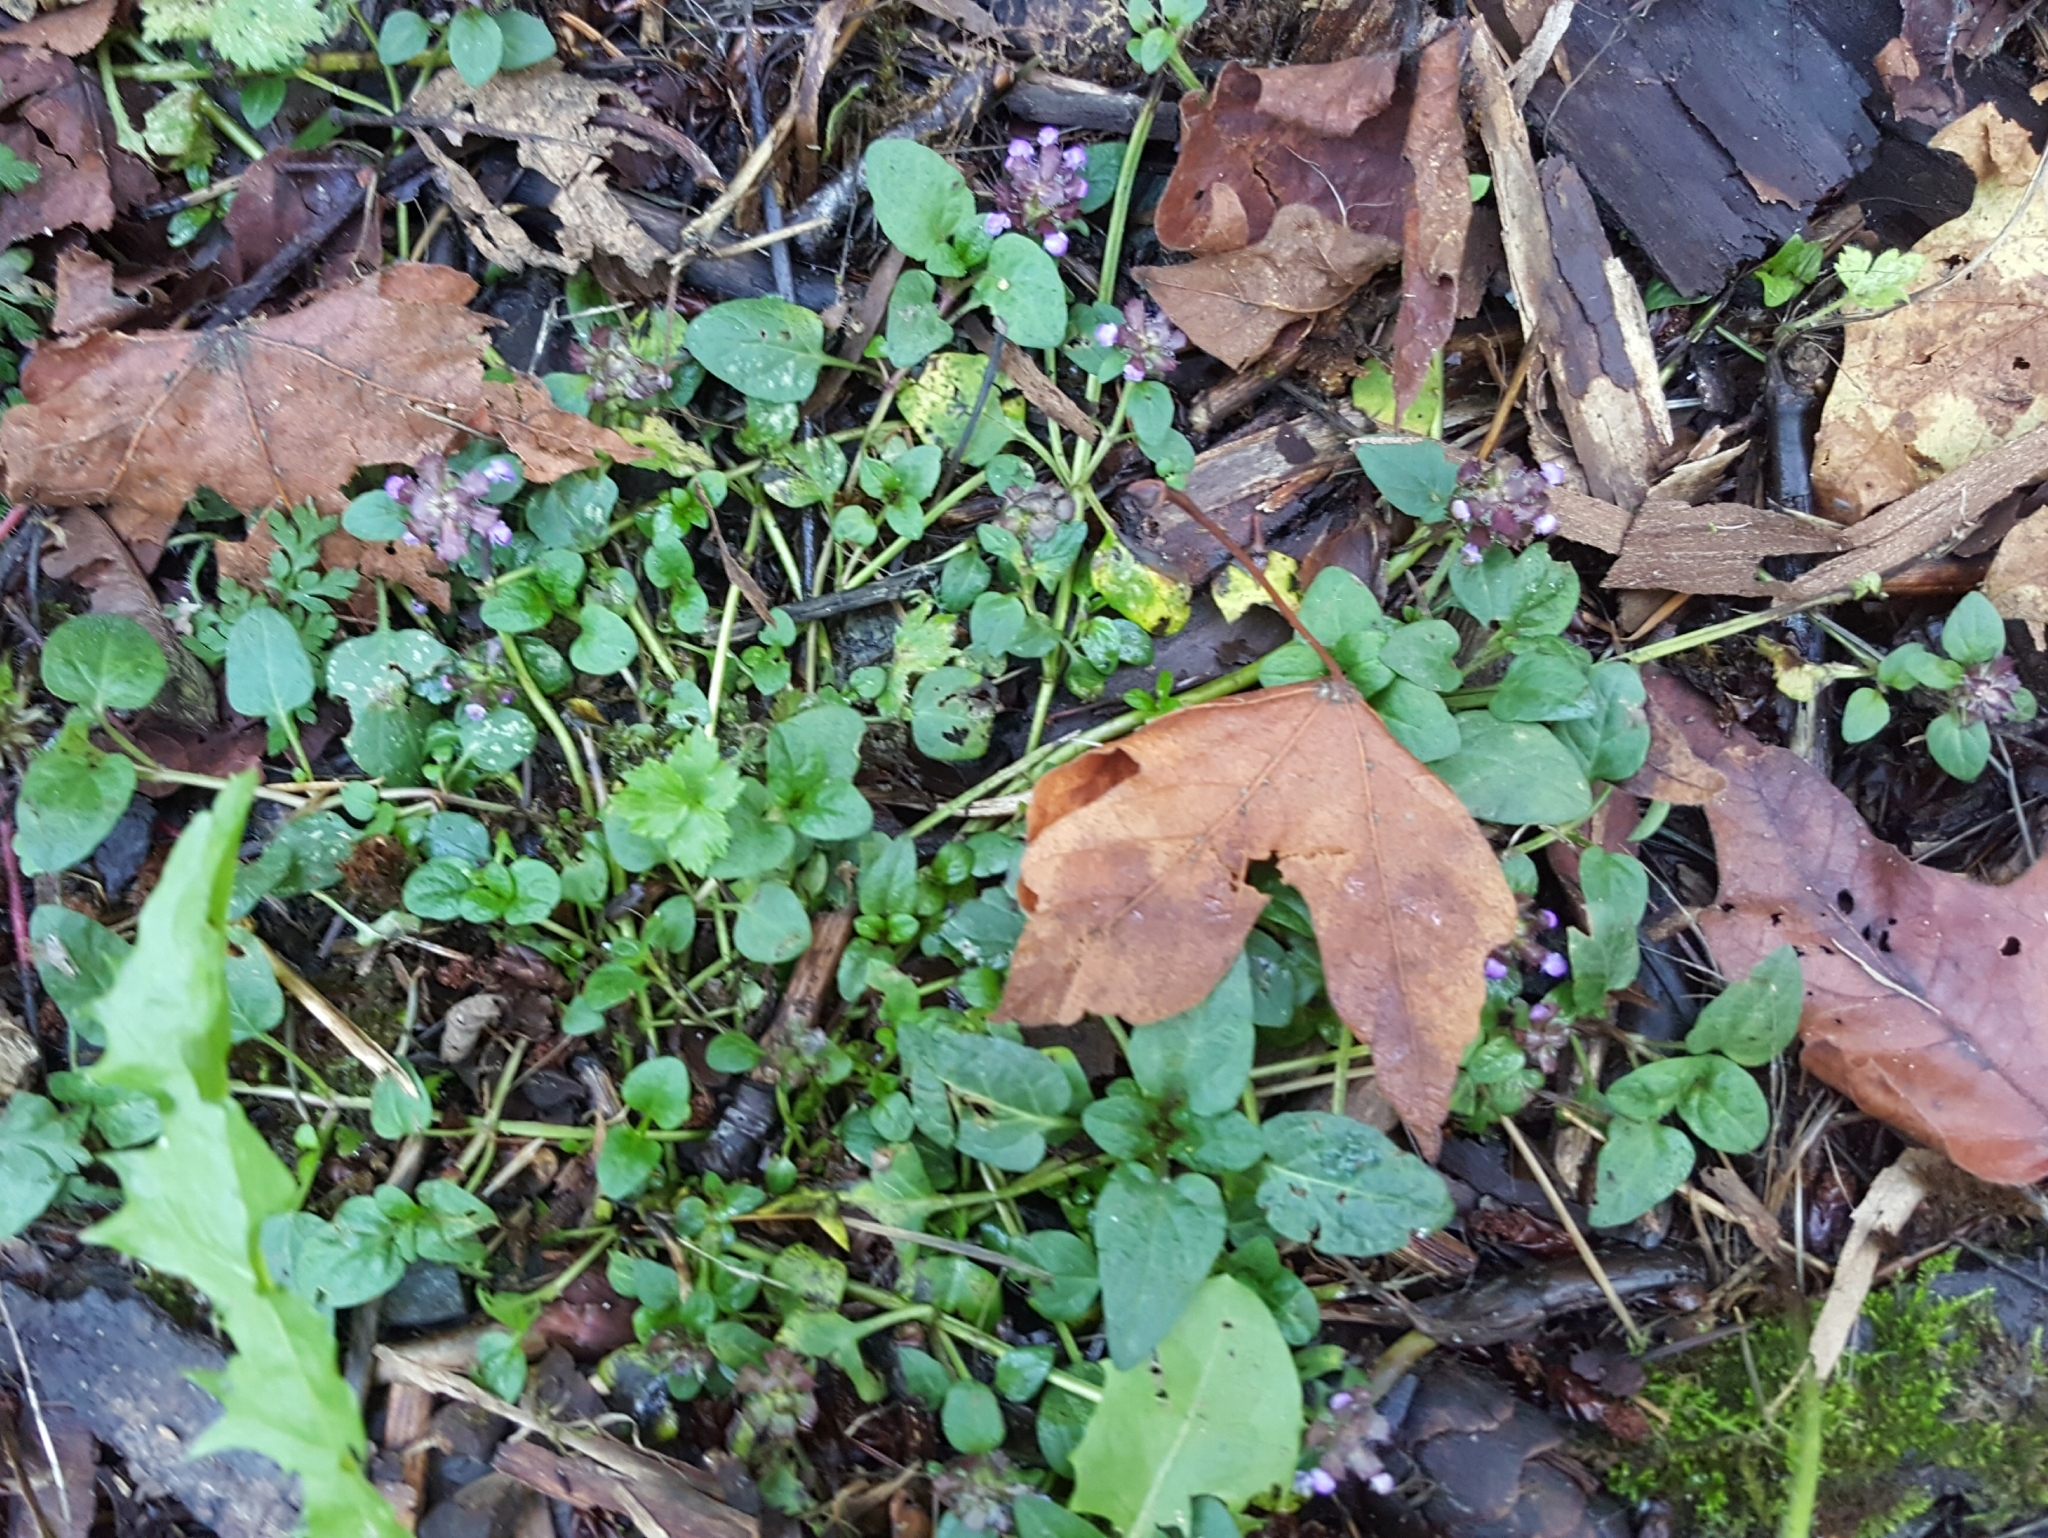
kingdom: Plantae
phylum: Tracheophyta
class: Magnoliopsida
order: Lamiales
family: Lamiaceae
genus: Prunella
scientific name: Prunella vulgaris
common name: Heal-all
